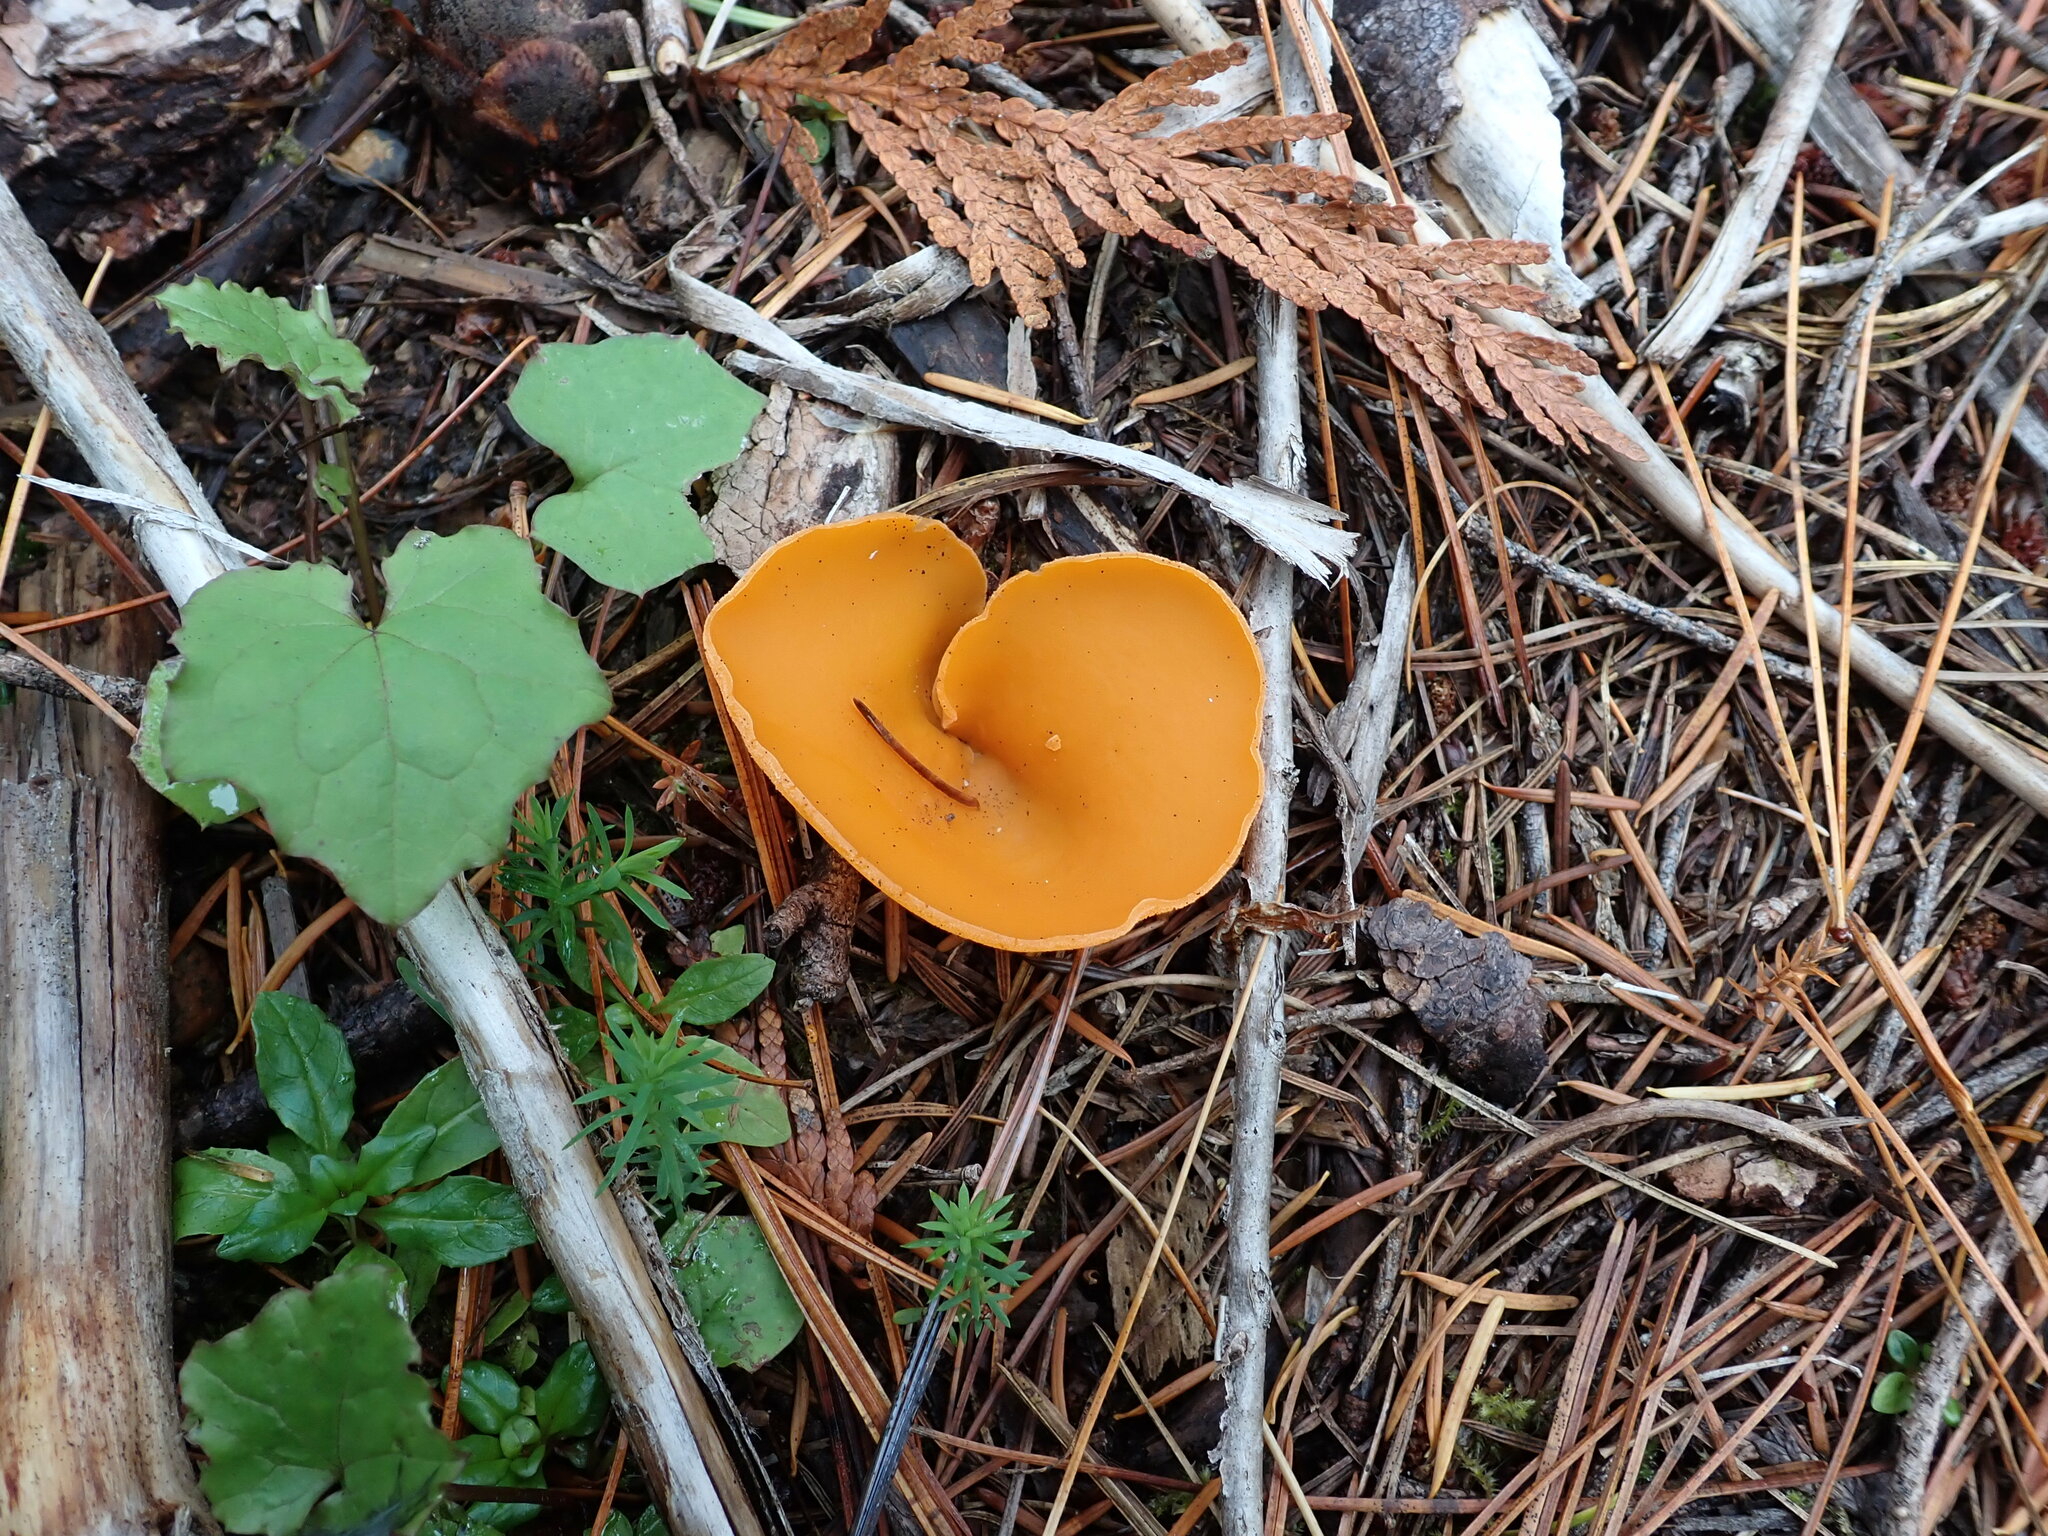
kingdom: Fungi
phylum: Ascomycota
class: Pezizomycetes
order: Pezizales
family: Pyronemataceae
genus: Aleuria
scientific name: Aleuria aurantia
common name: Orange peel fungus
